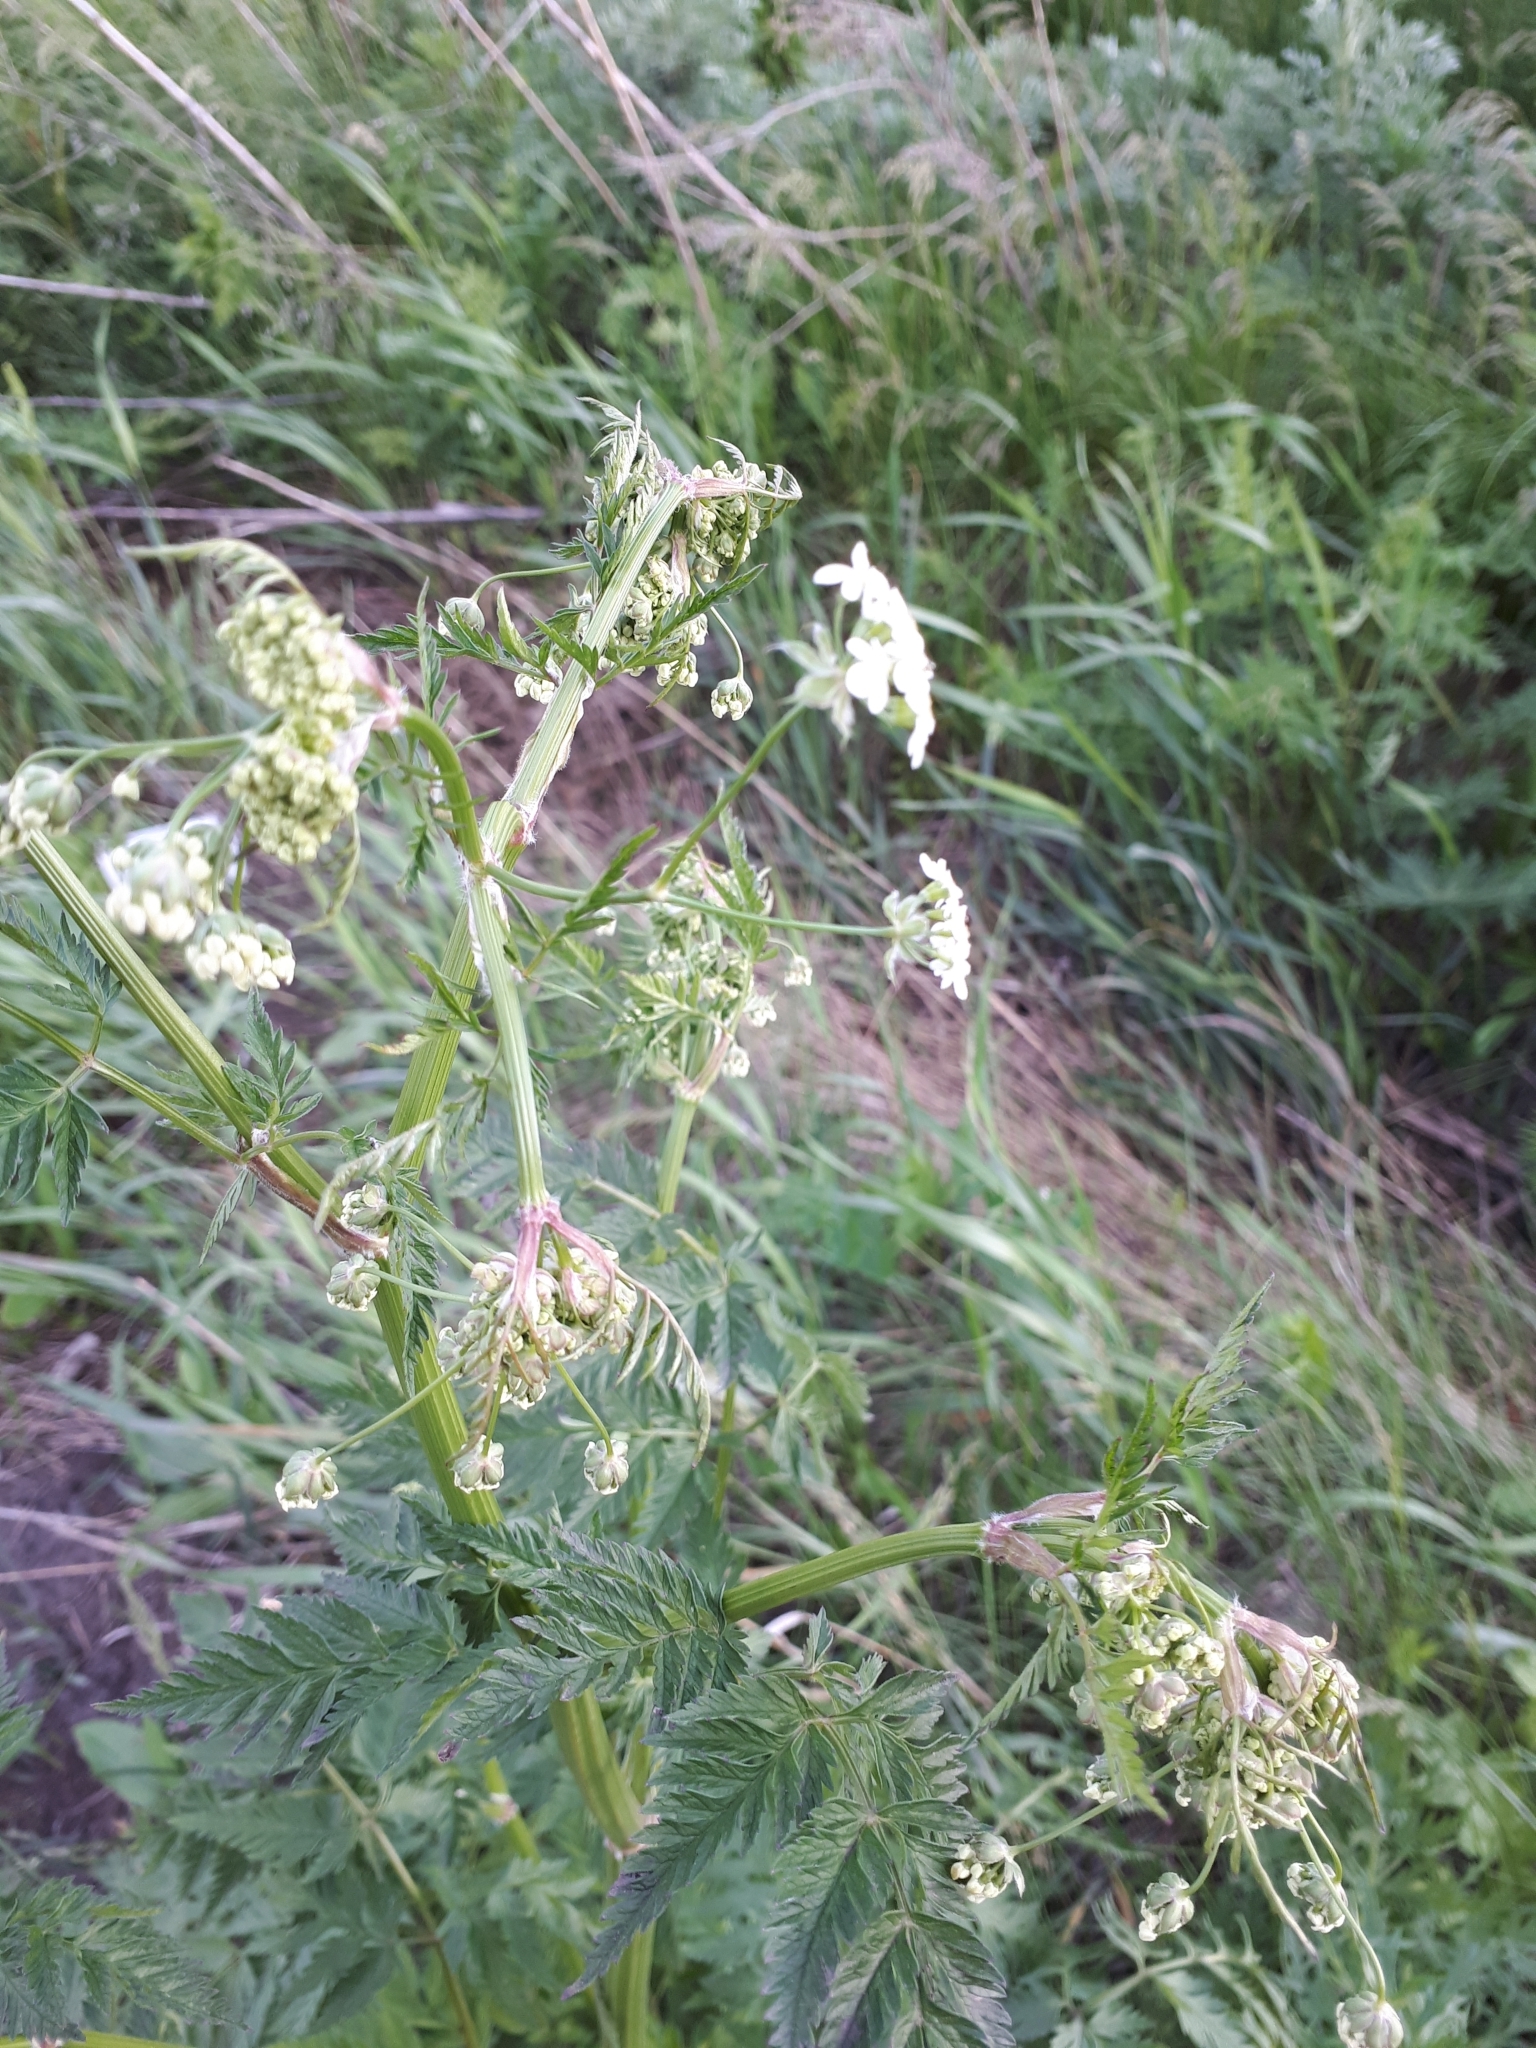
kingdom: Plantae
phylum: Tracheophyta
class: Magnoliopsida
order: Apiales
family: Apiaceae
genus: Anthriscus
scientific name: Anthriscus sylvestris
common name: Cow parsley
